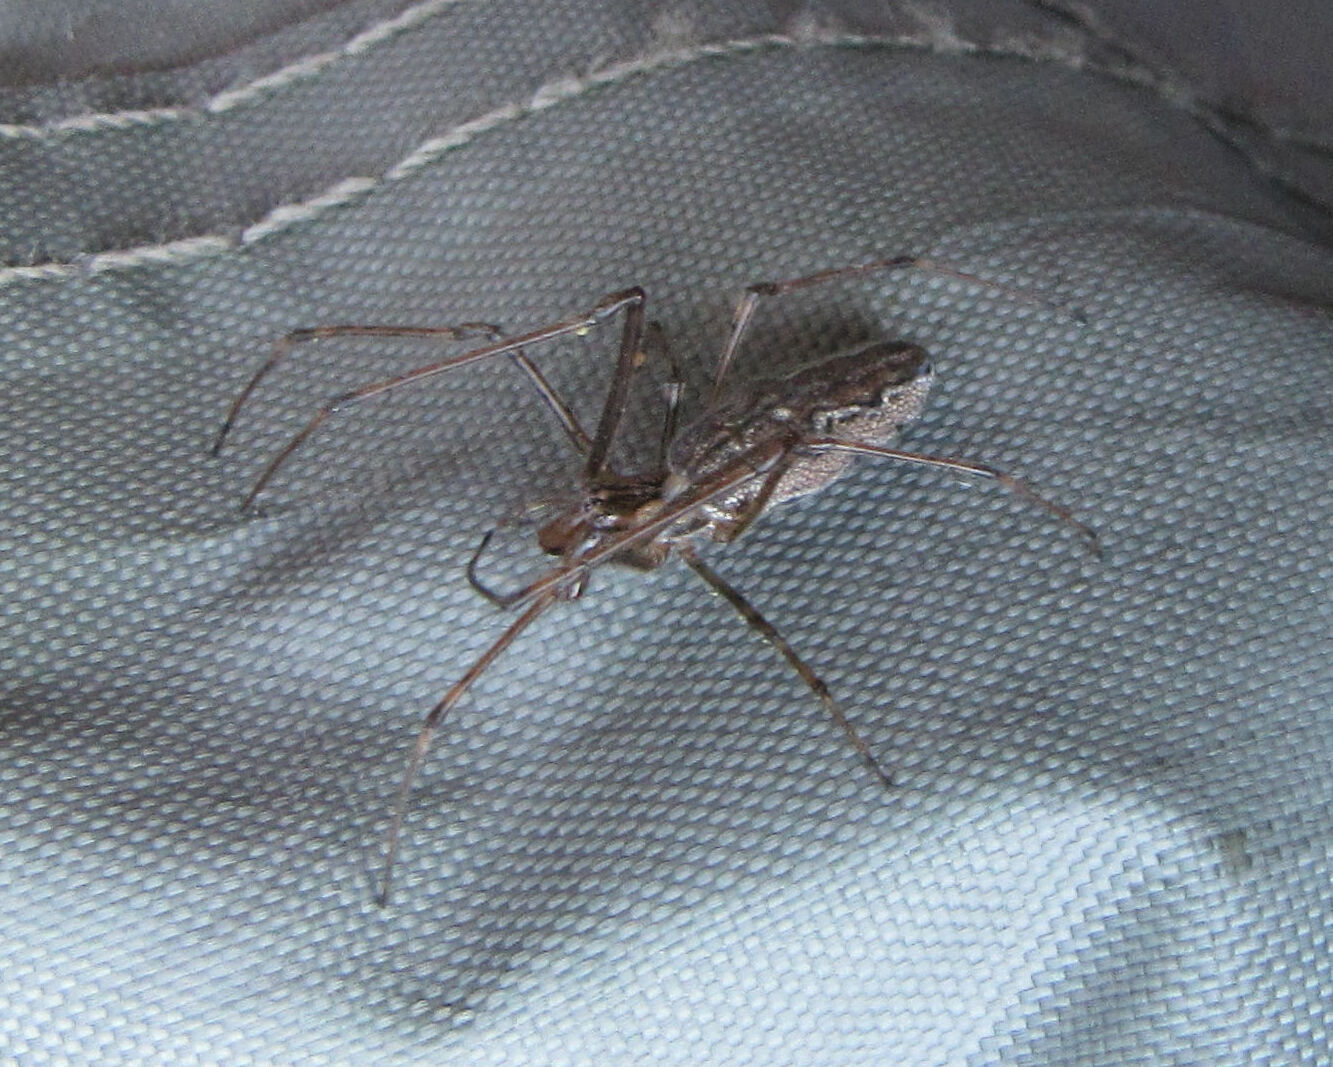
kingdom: Animalia
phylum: Arthropoda
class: Arachnida
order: Araneae
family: Tetragnathidae
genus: Tetragnatha
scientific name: Tetragnatha
